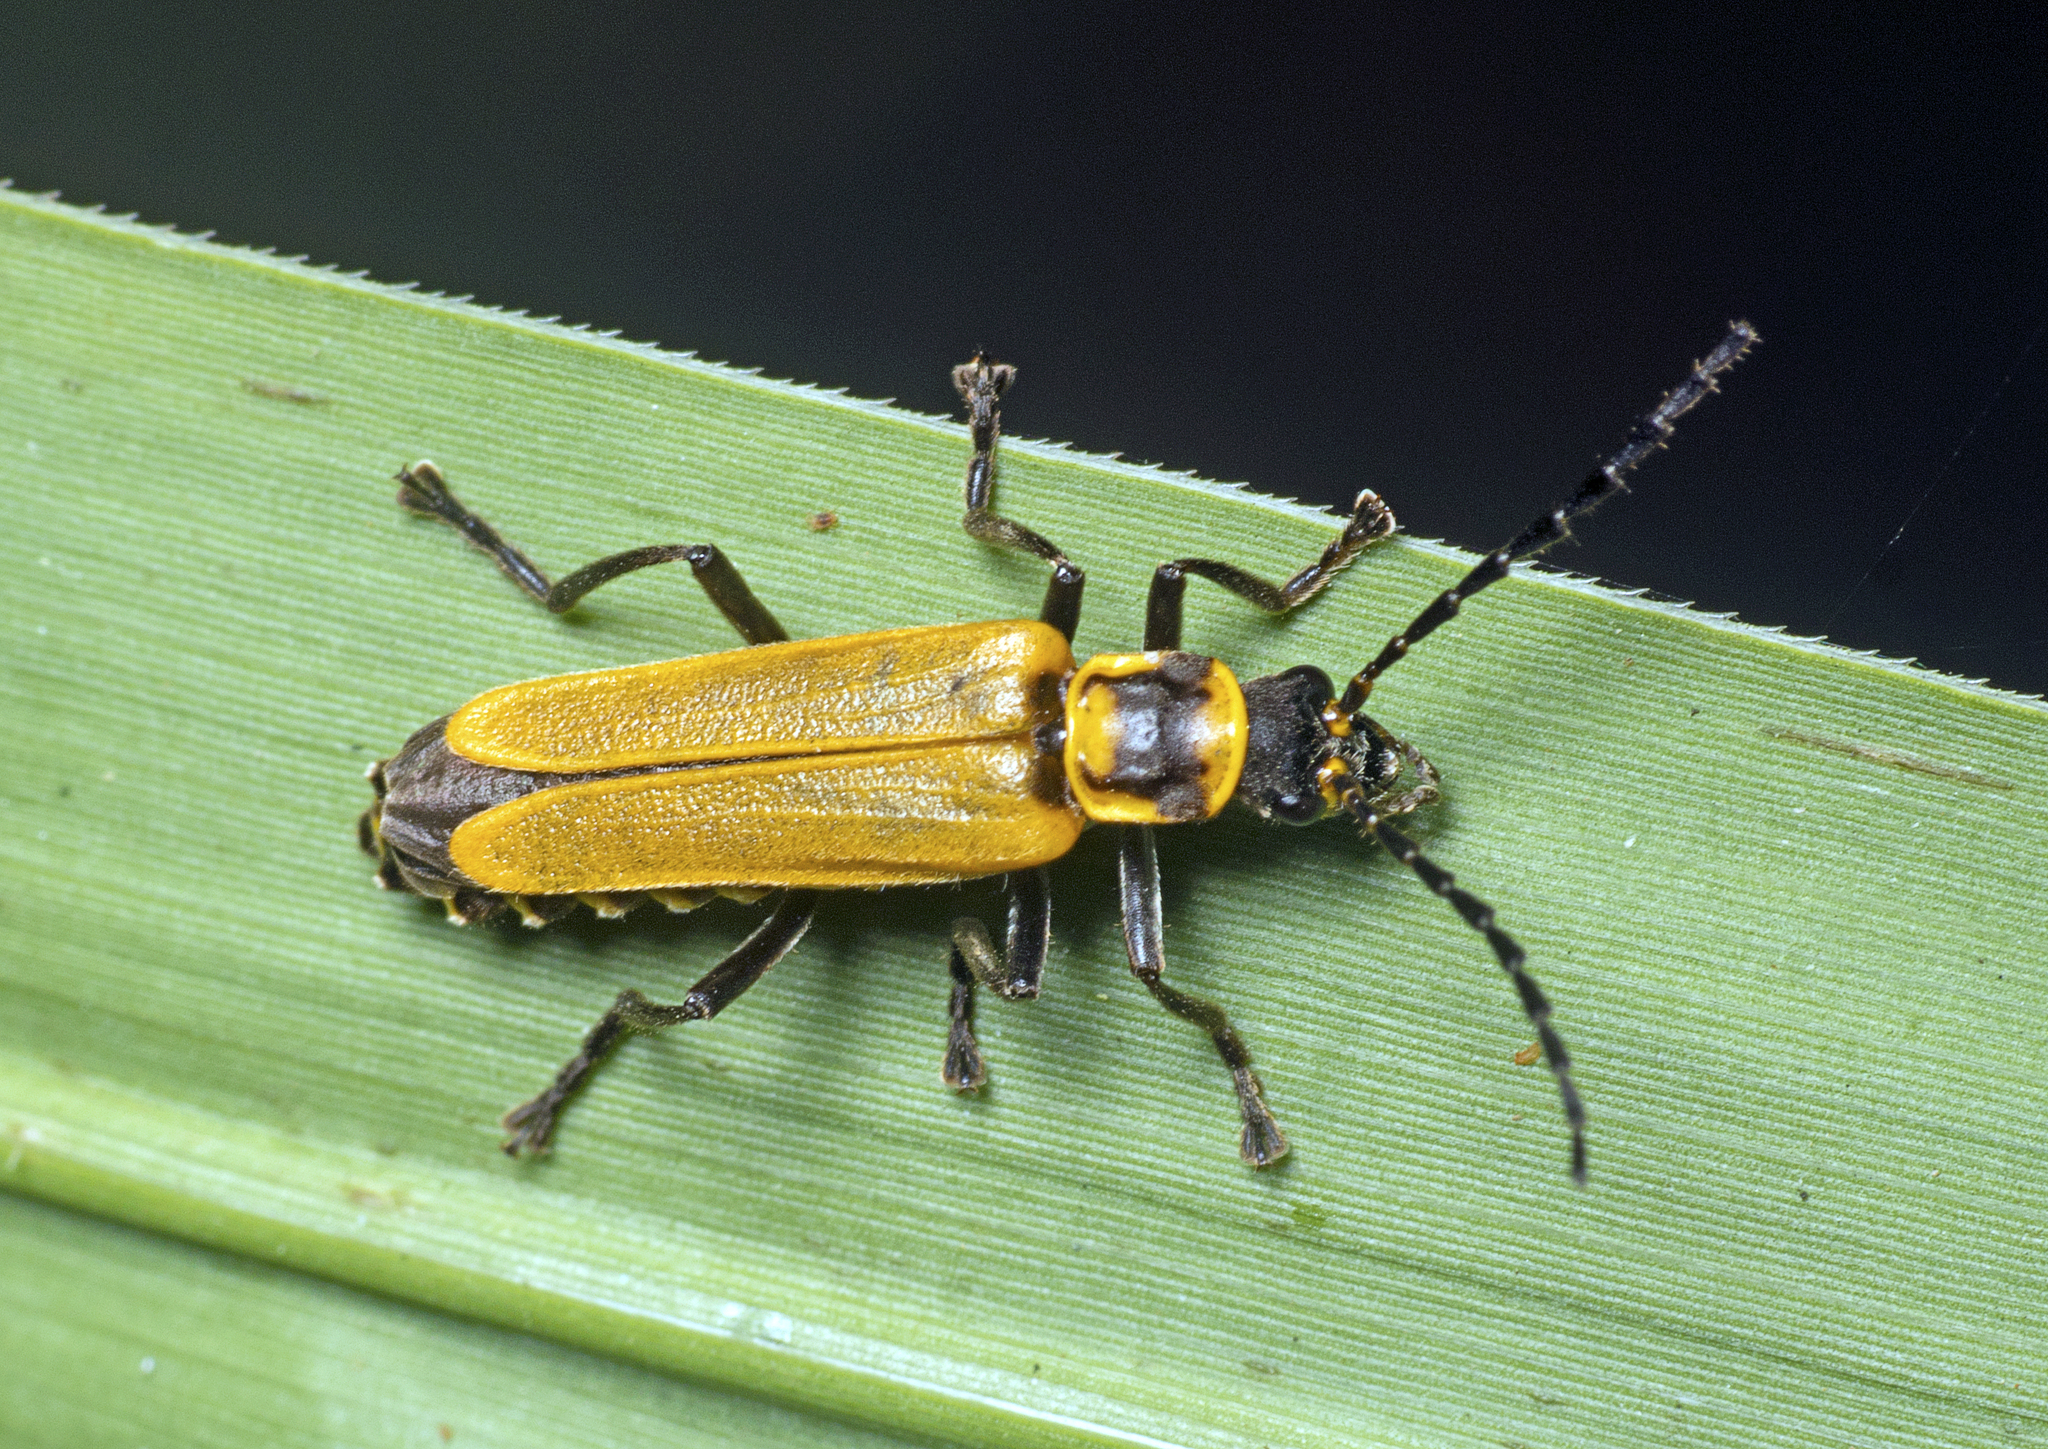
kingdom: Animalia
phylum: Arthropoda
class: Insecta
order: Coleoptera
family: Cantharidae
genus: Chauliognathus
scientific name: Chauliognathus
